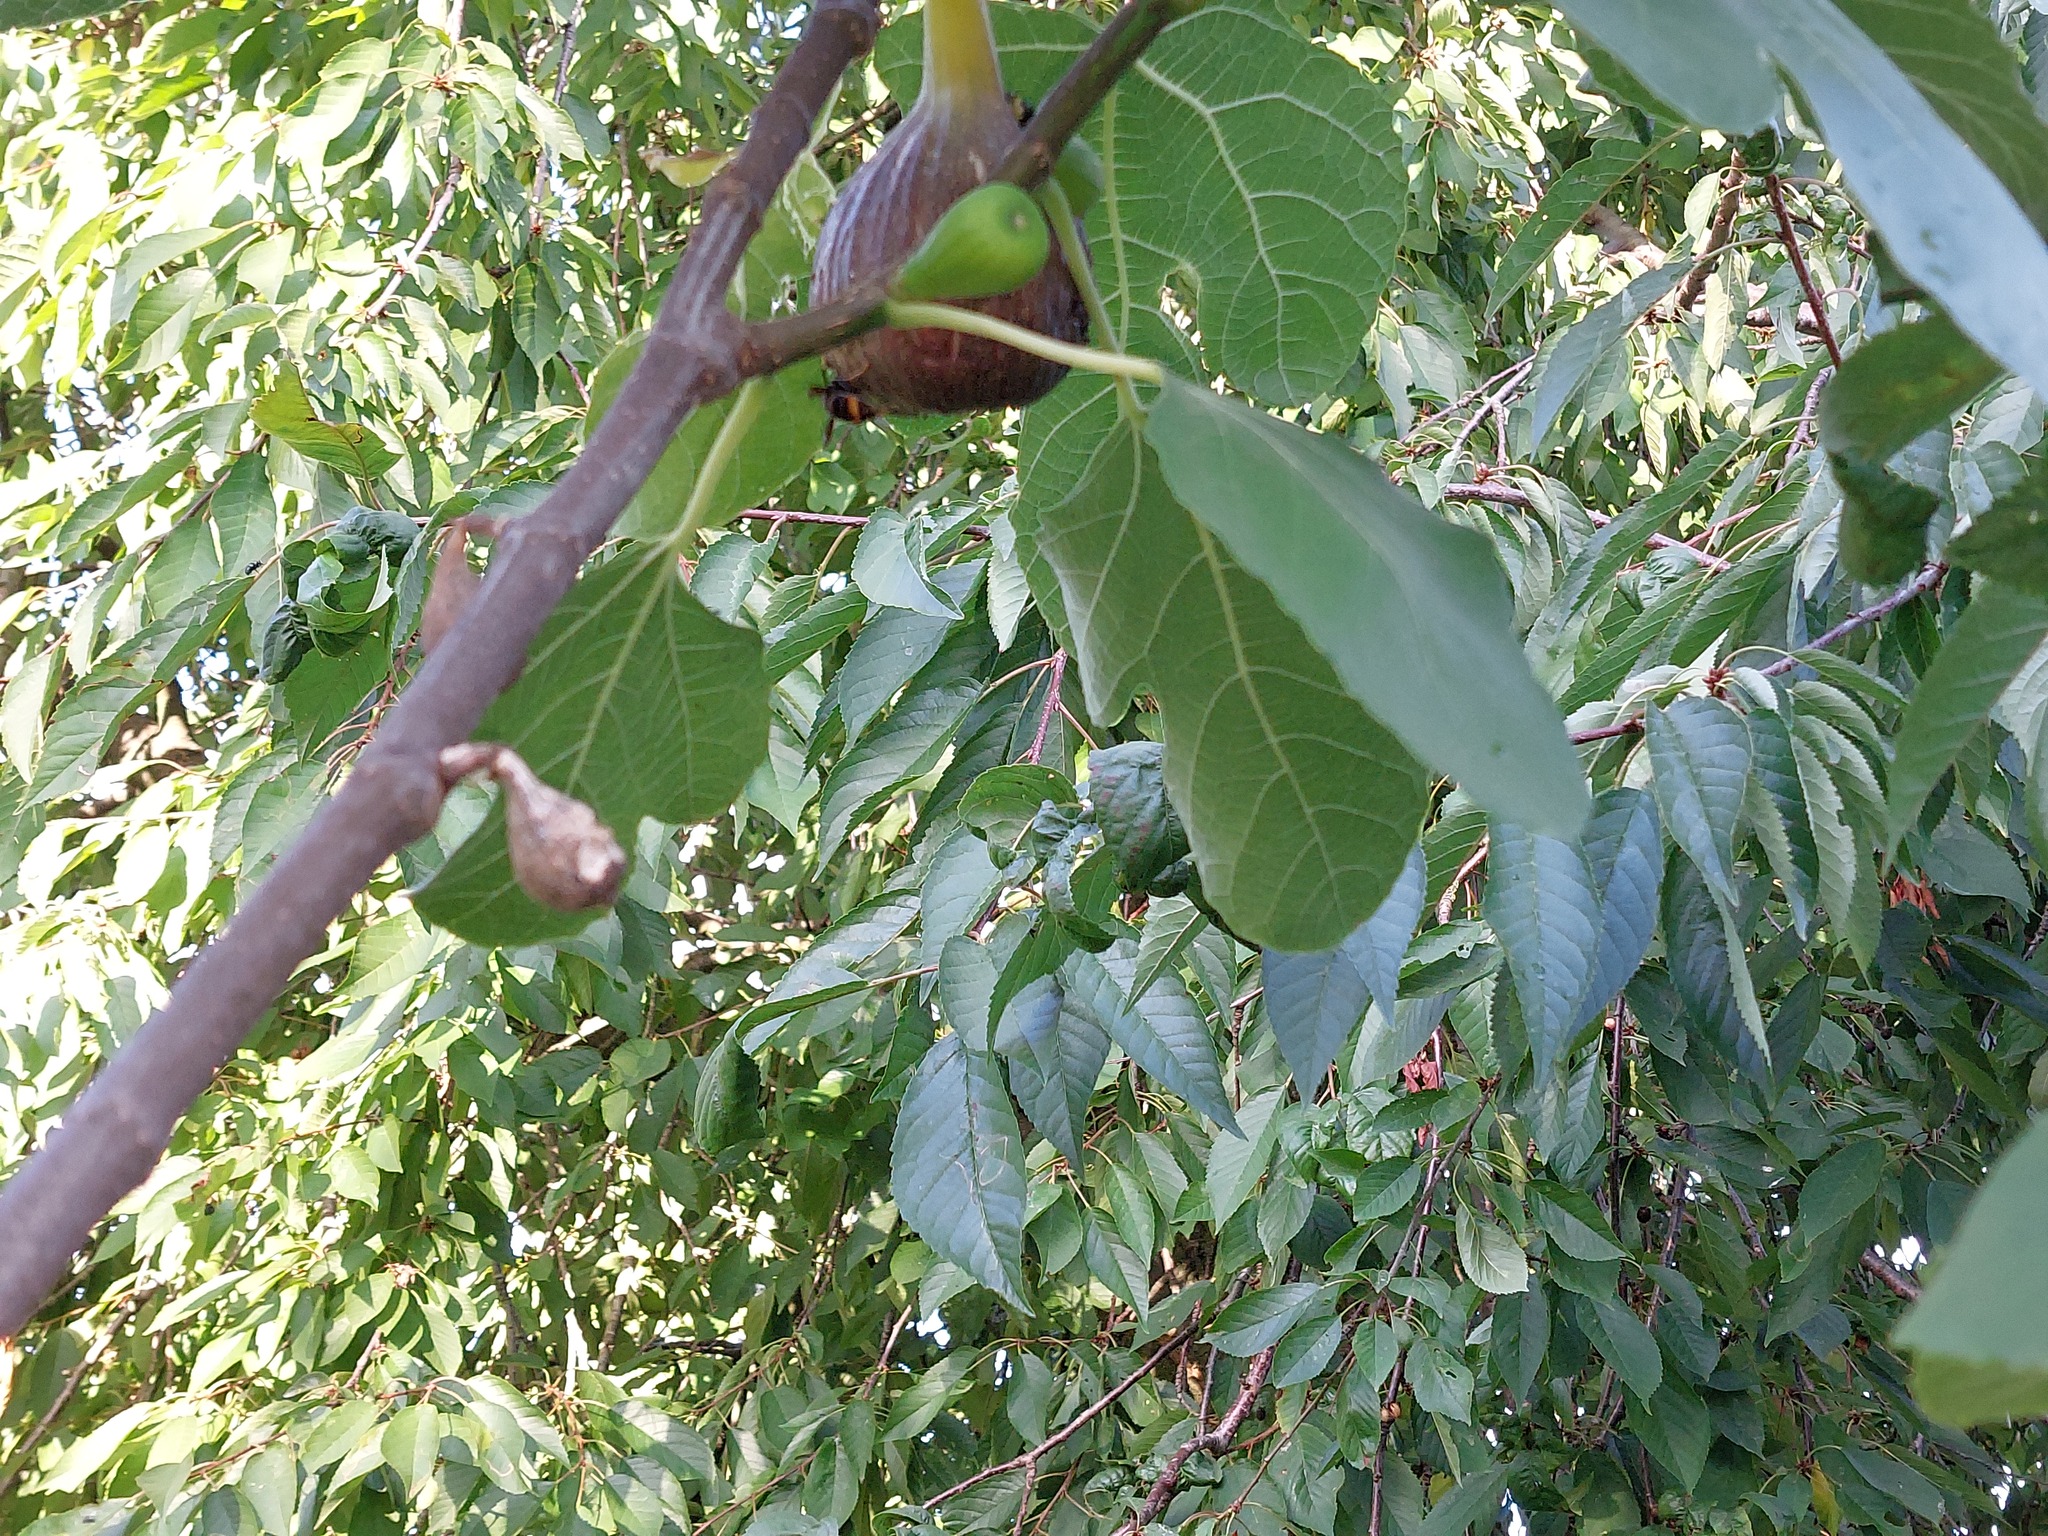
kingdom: Animalia
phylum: Arthropoda
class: Insecta
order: Hymenoptera
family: Vespidae
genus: Vespa
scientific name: Vespa velutina
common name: Asian hornet
